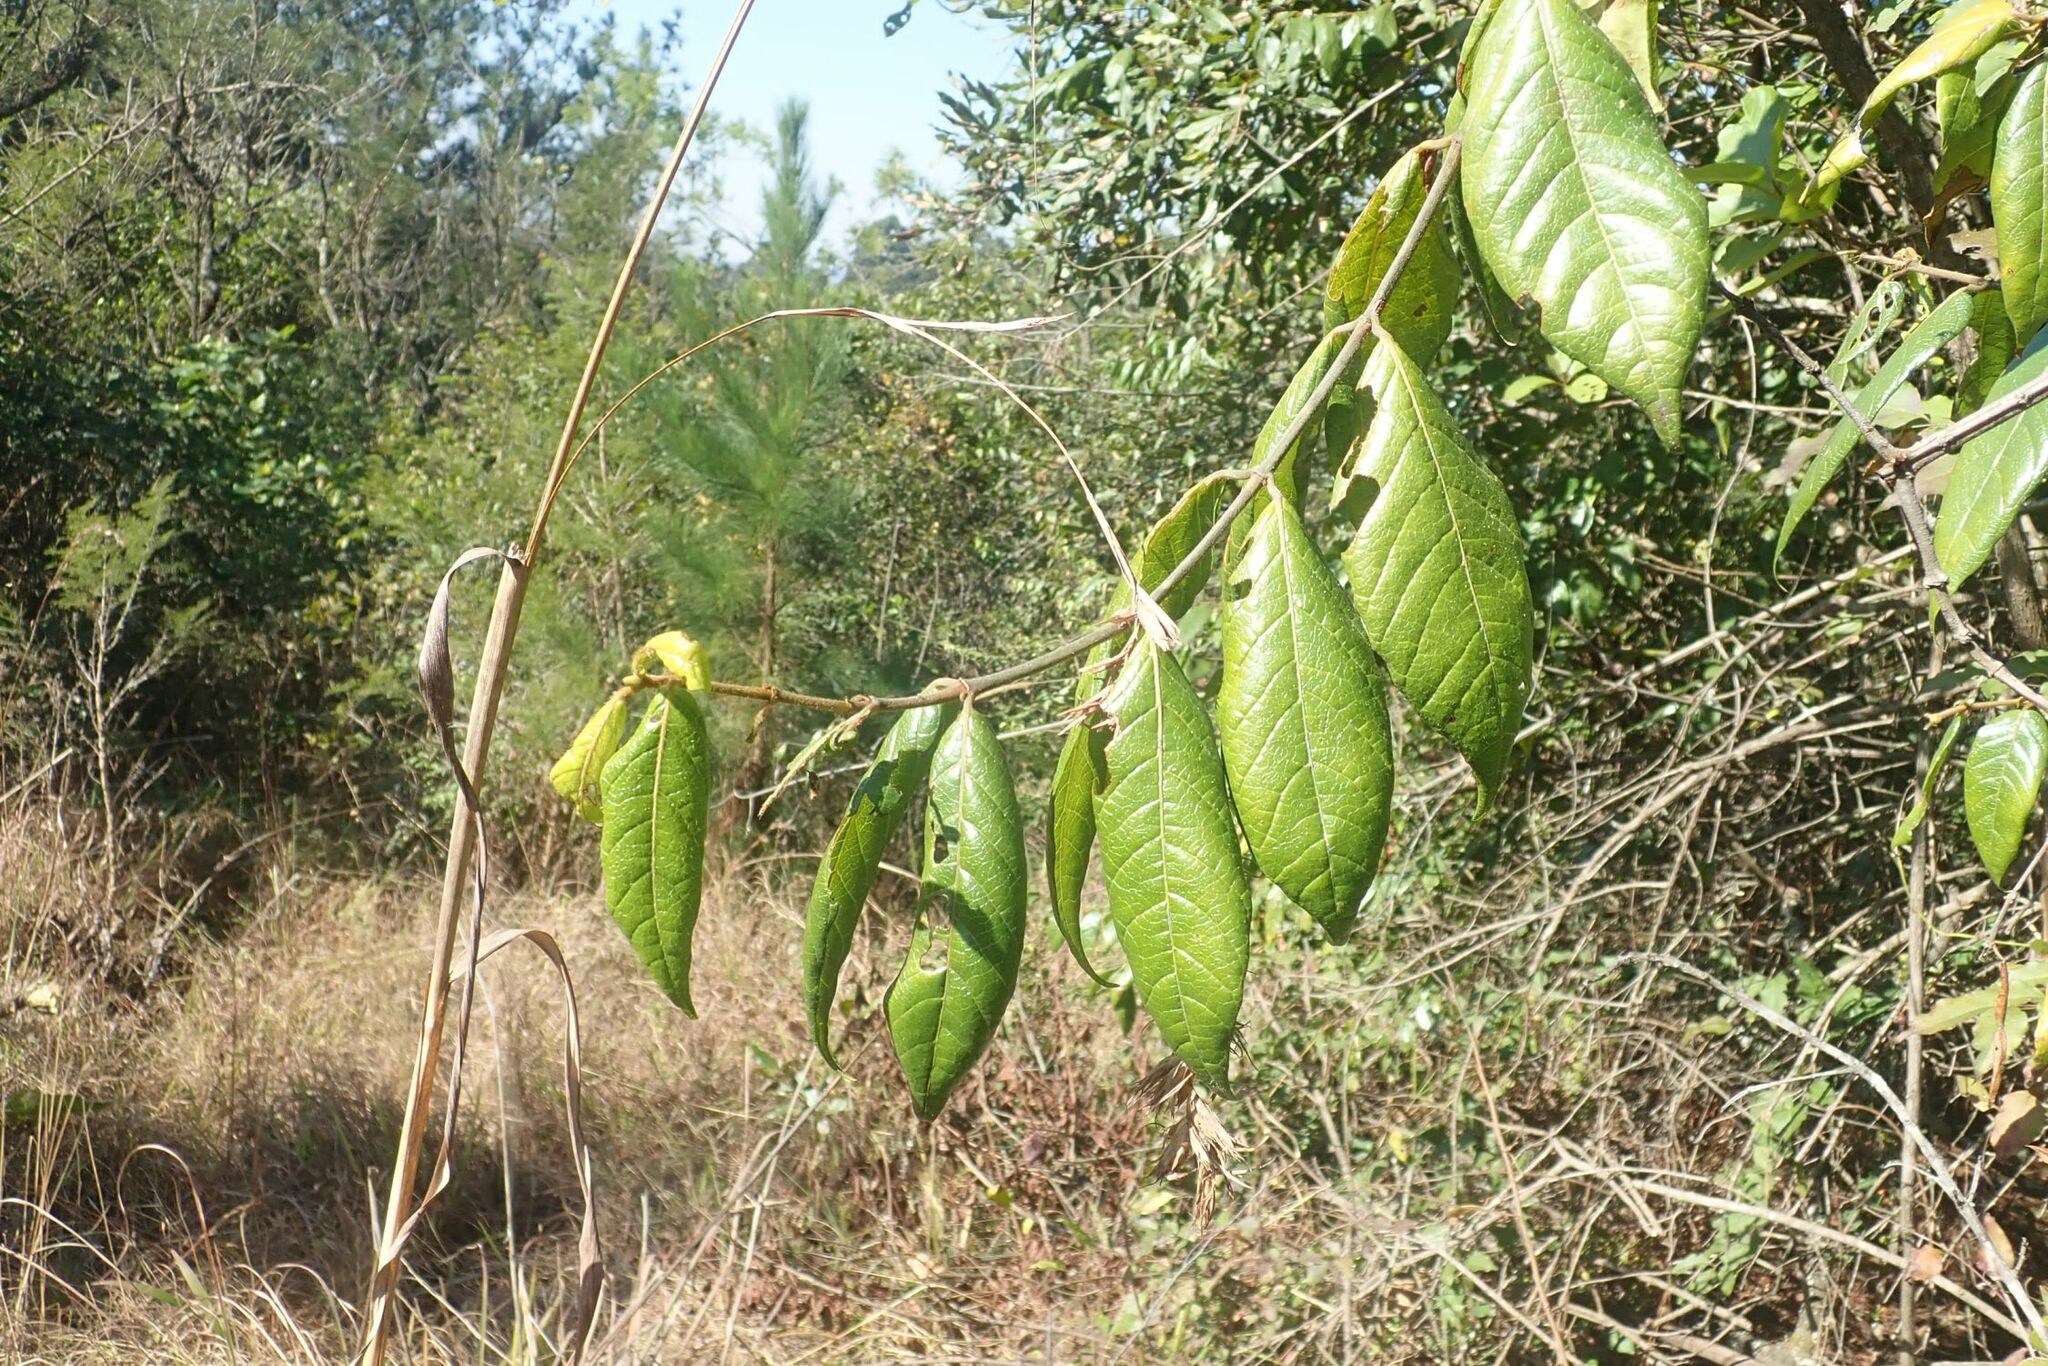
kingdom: Plantae
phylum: Tracheophyta
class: Magnoliopsida
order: Gentianales
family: Rubiaceae
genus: Keetia
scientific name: Keetia gueinzii
